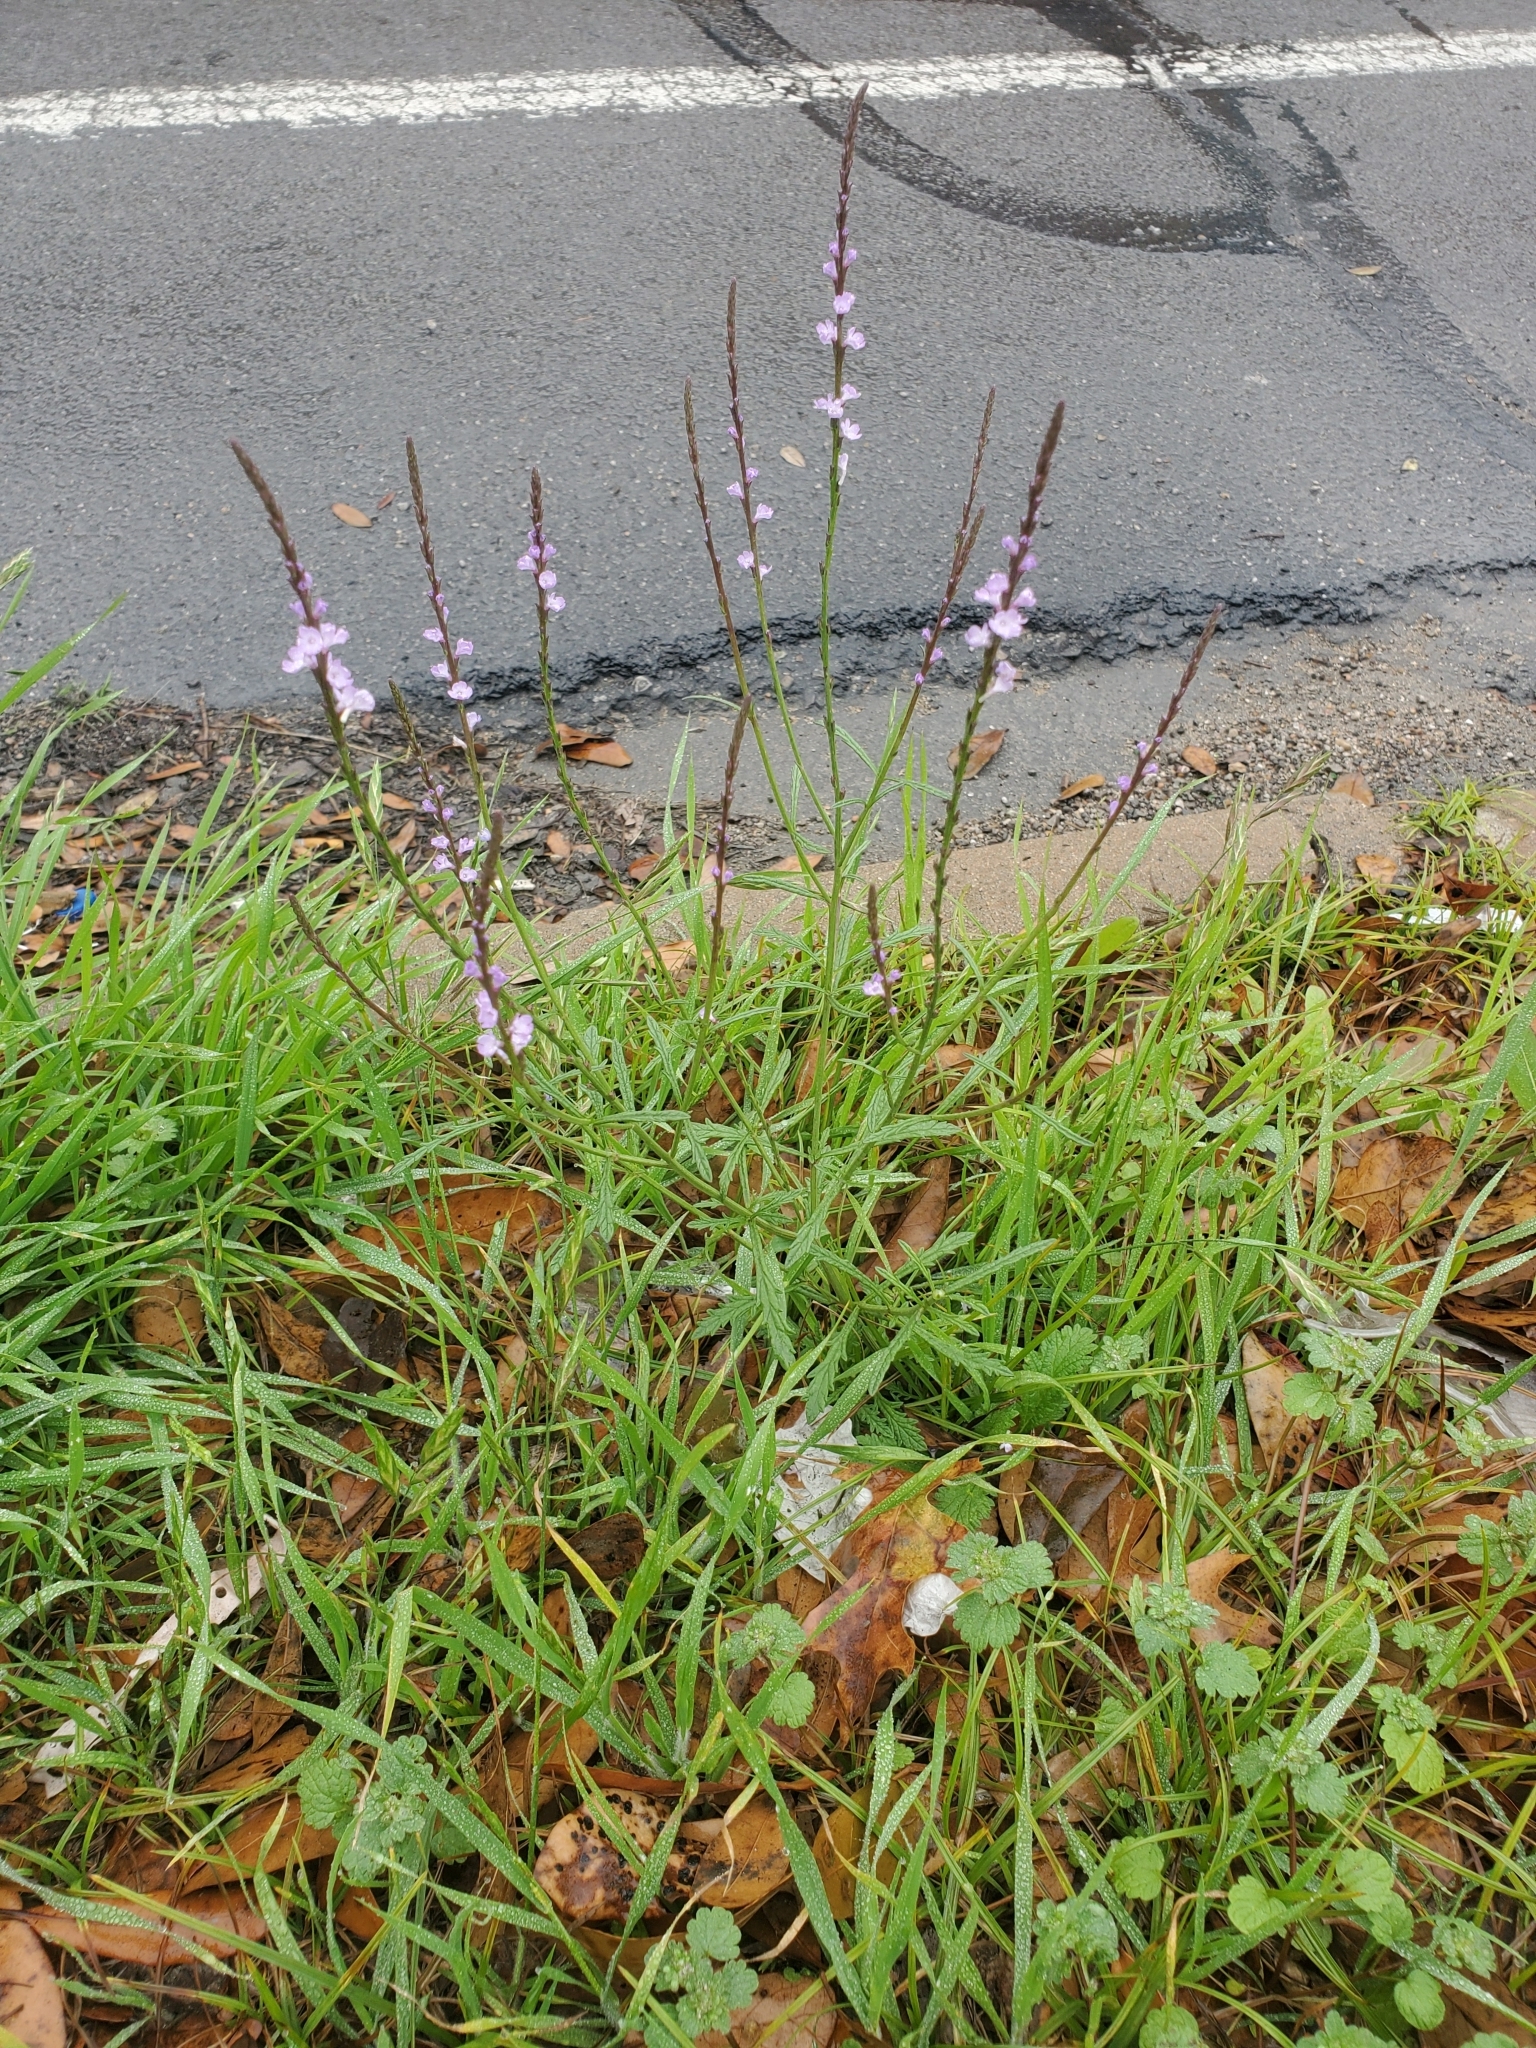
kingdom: Plantae
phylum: Tracheophyta
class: Magnoliopsida
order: Lamiales
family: Verbenaceae
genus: Verbena
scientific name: Verbena halei
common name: Texas vervain
